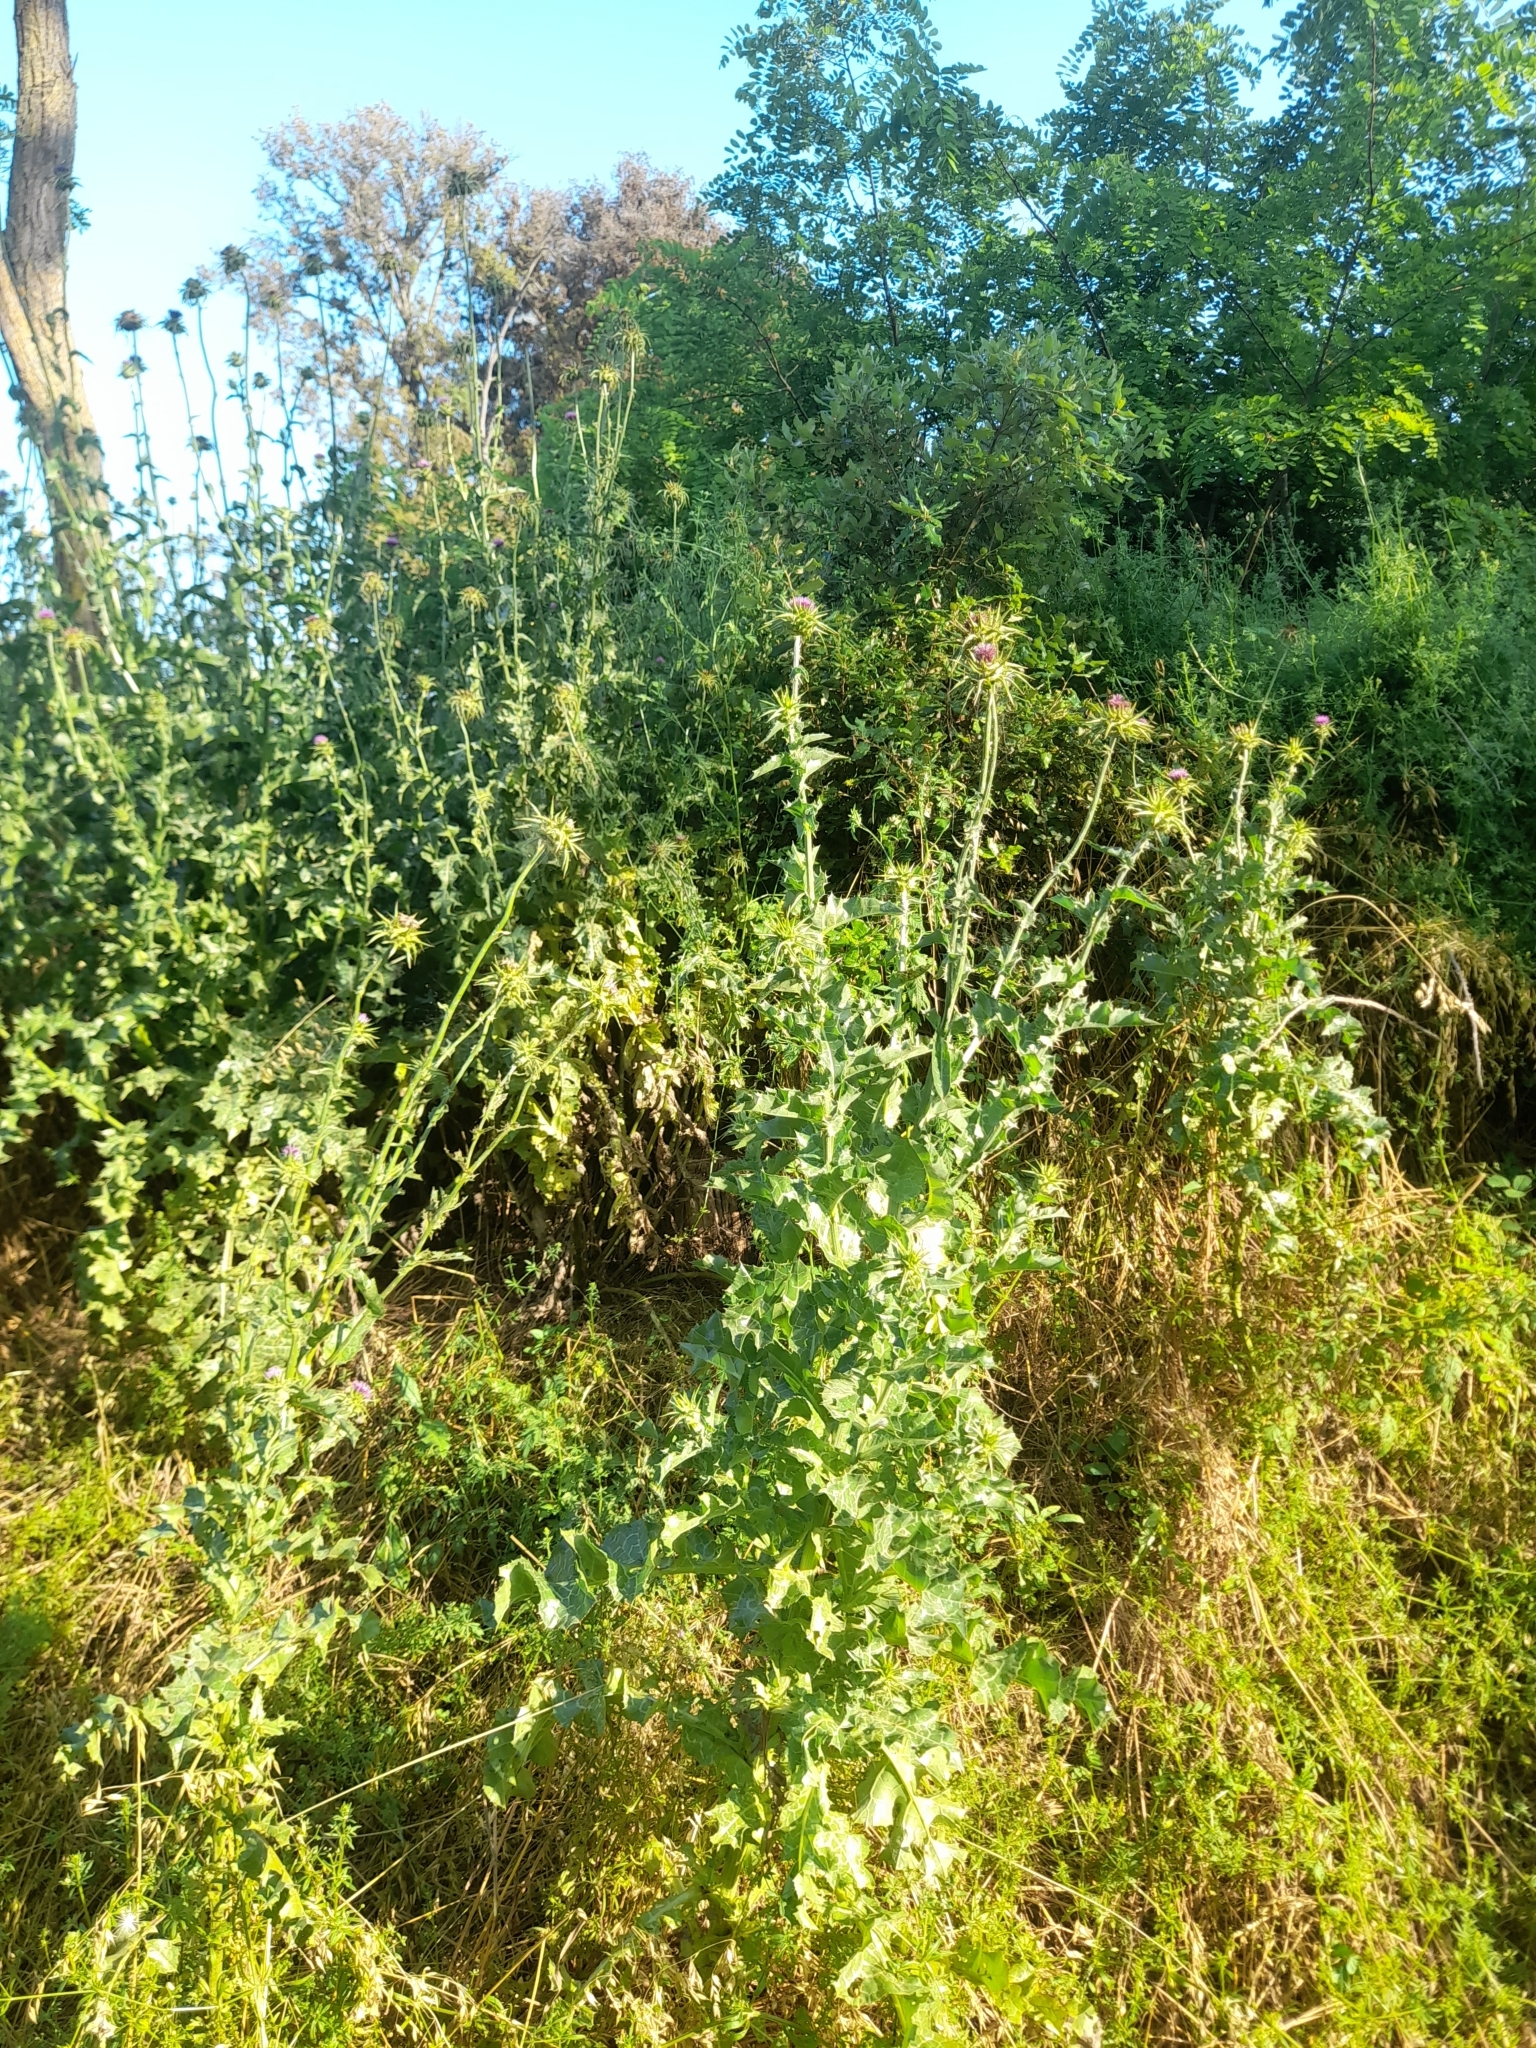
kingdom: Plantae
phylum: Tracheophyta
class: Magnoliopsida
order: Asterales
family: Asteraceae
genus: Silybum
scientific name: Silybum marianum
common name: Milk thistle
